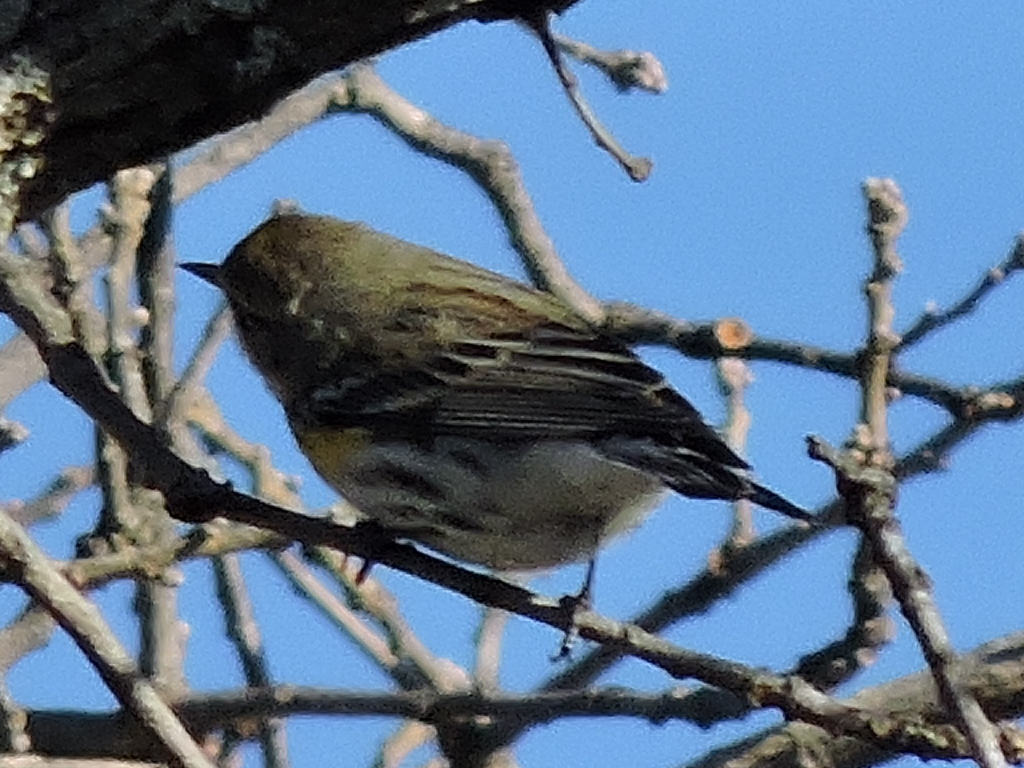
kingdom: Animalia
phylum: Chordata
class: Aves
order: Passeriformes
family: Parulidae
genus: Setophaga
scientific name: Setophaga coronata
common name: Myrtle warbler
